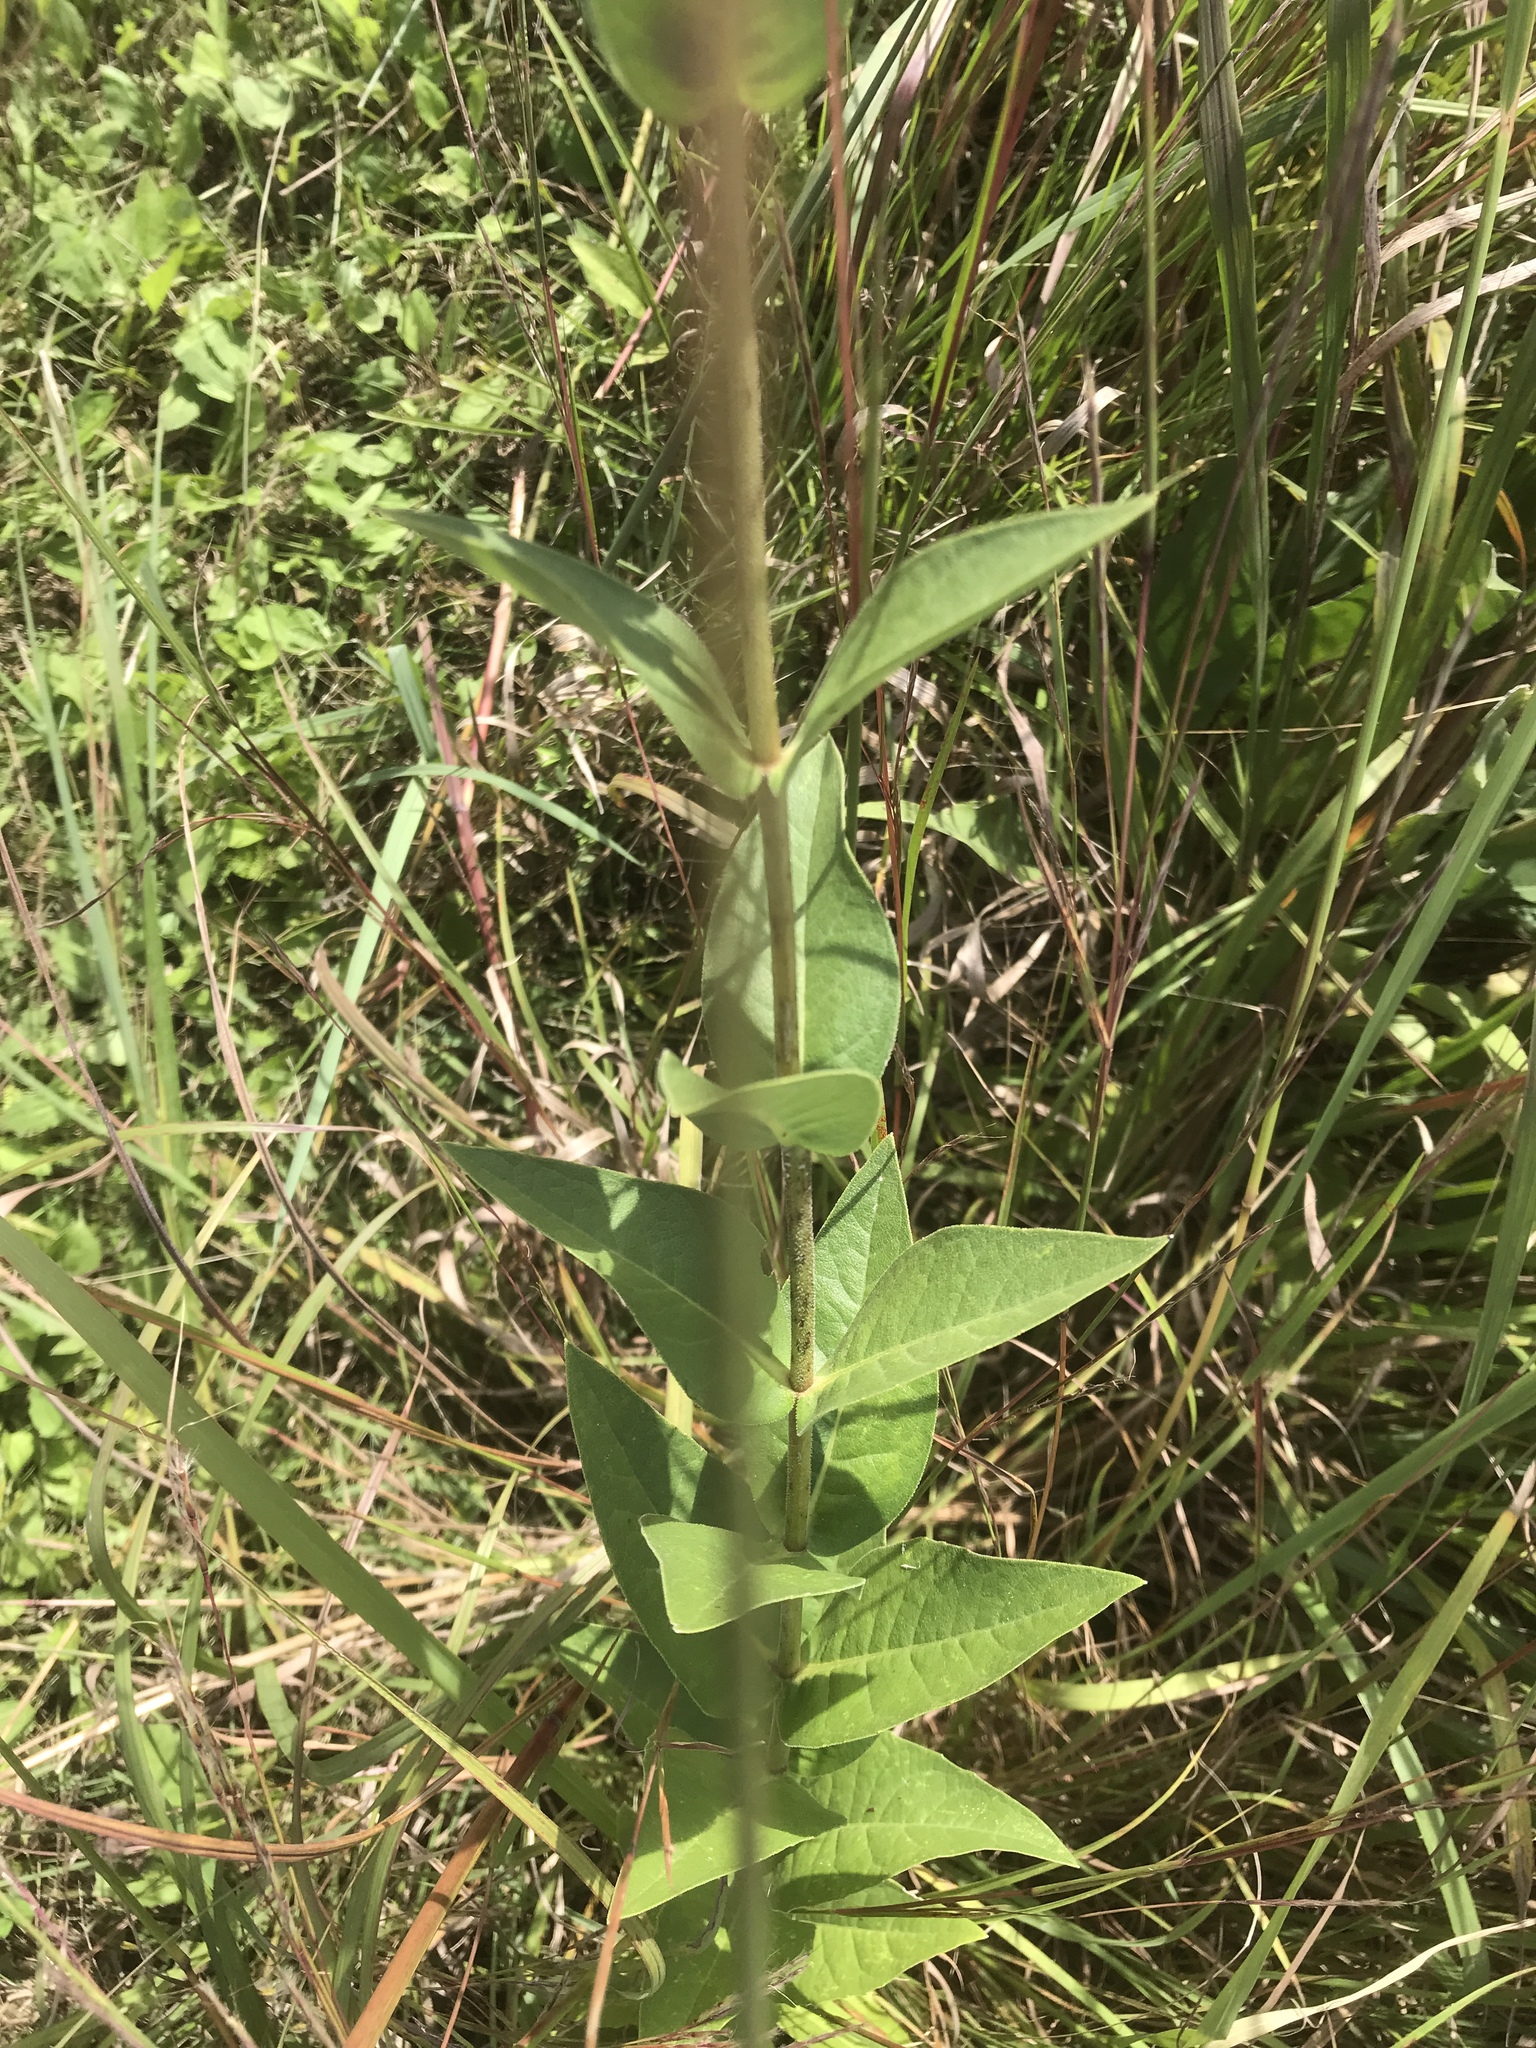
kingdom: Plantae
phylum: Tracheophyta
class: Magnoliopsida
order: Asterales
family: Asteraceae
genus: Silphium
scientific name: Silphium integrifolium
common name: Whole-leaf rosinweed
